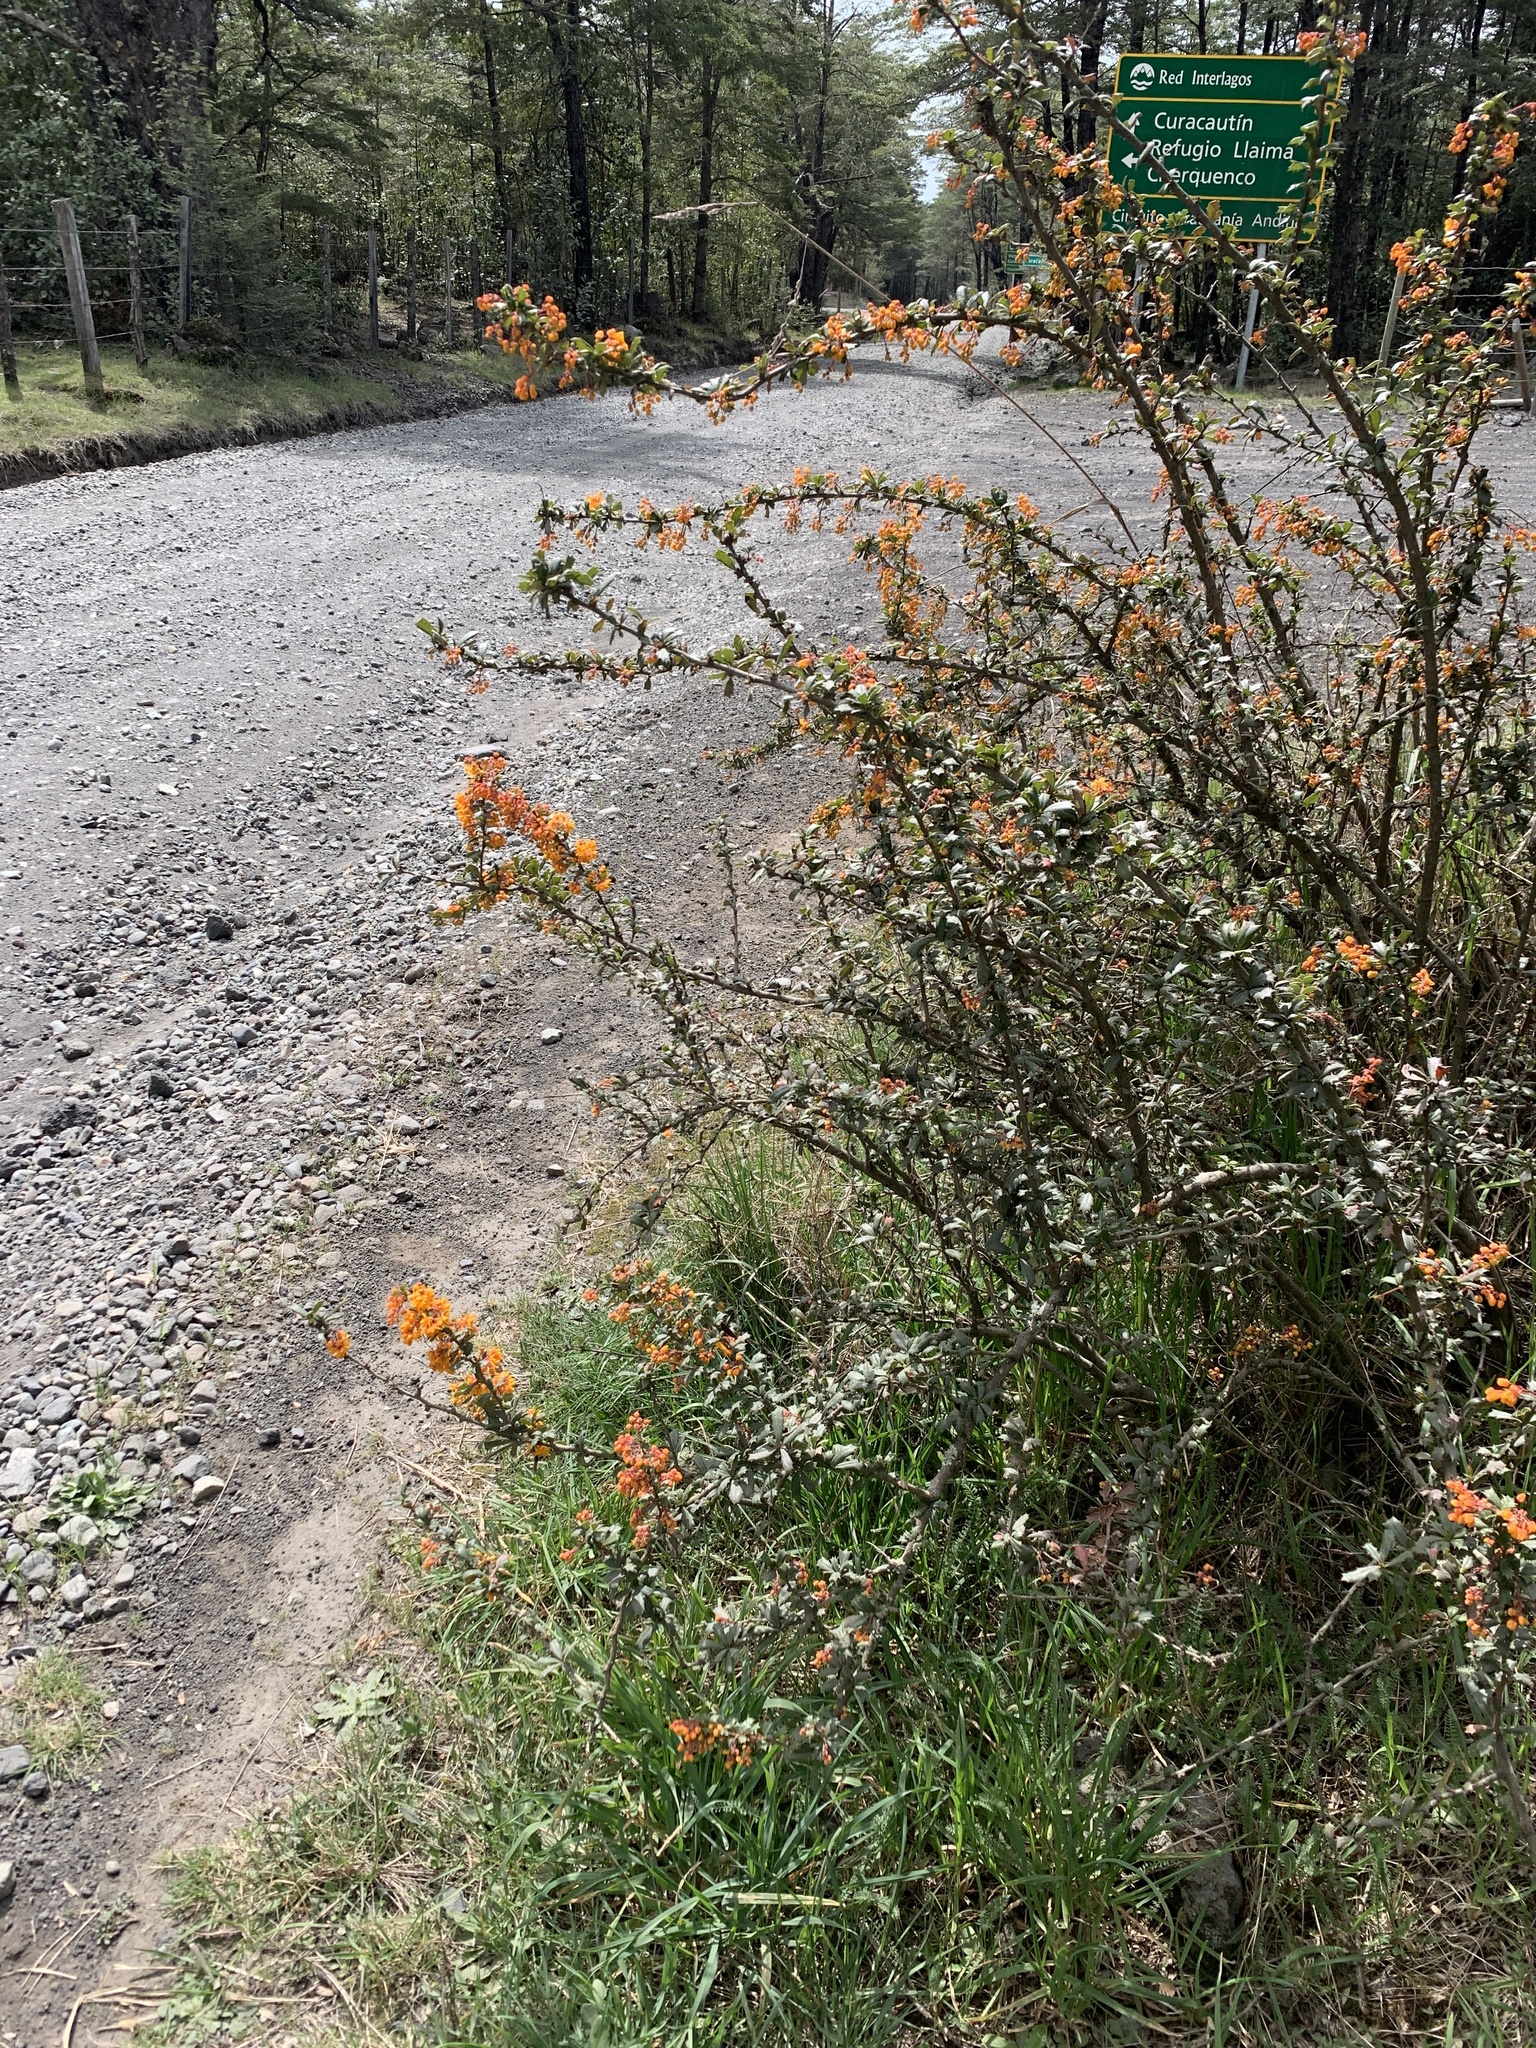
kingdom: Plantae
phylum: Tracheophyta
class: Magnoliopsida
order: Ranunculales
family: Berberidaceae
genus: Berberis
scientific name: Berberis darwinii
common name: Darwin's barberry
